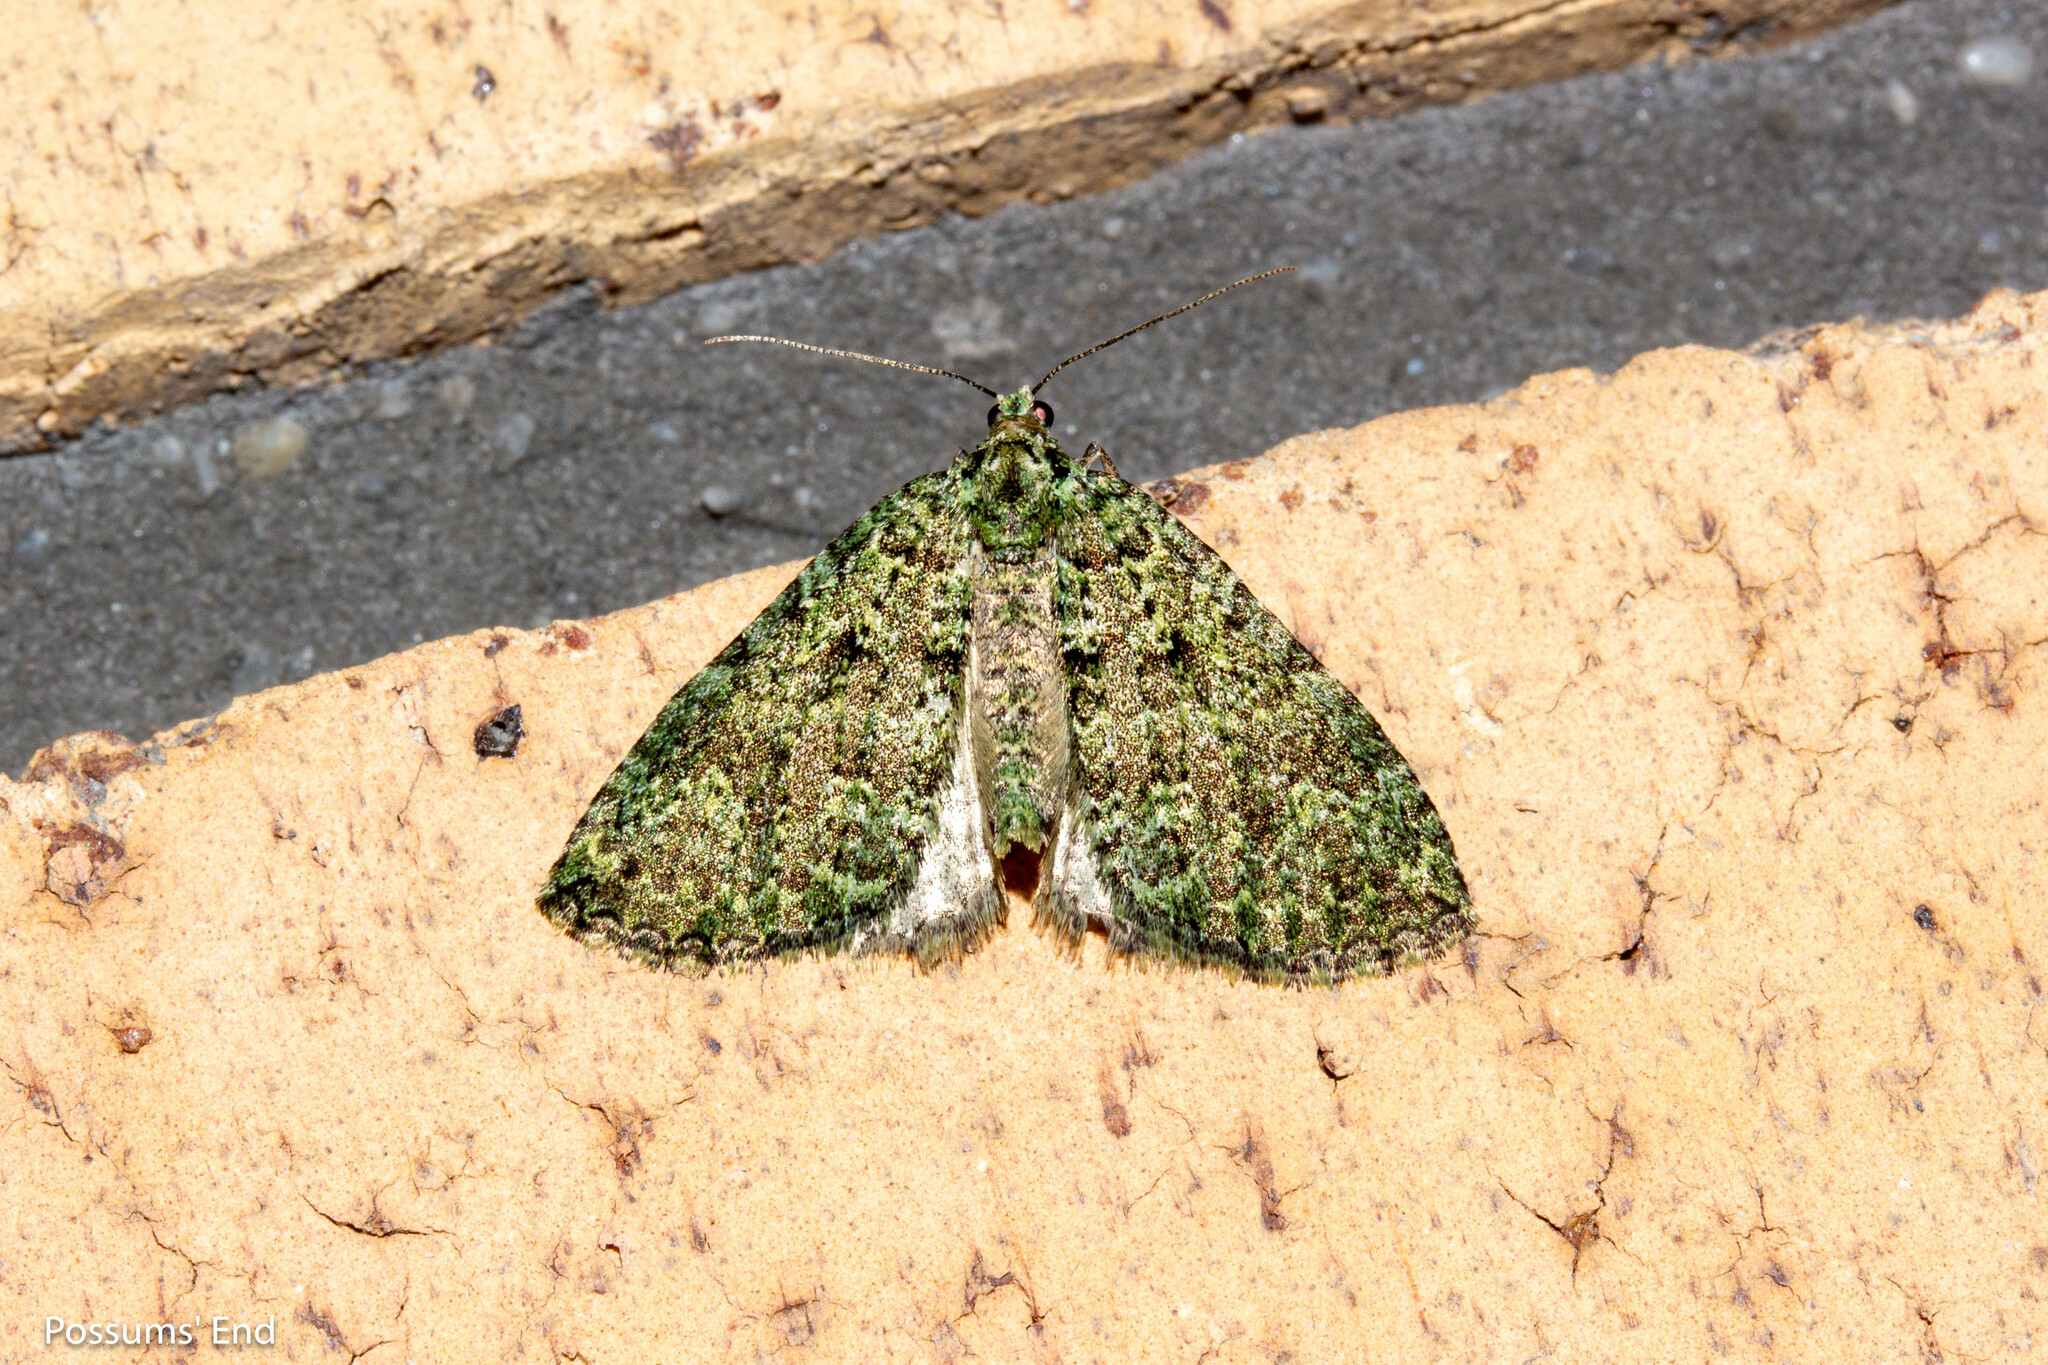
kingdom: Animalia
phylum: Arthropoda
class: Insecta
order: Lepidoptera
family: Geometridae
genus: Austrocidaria
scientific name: Austrocidaria callichlora
